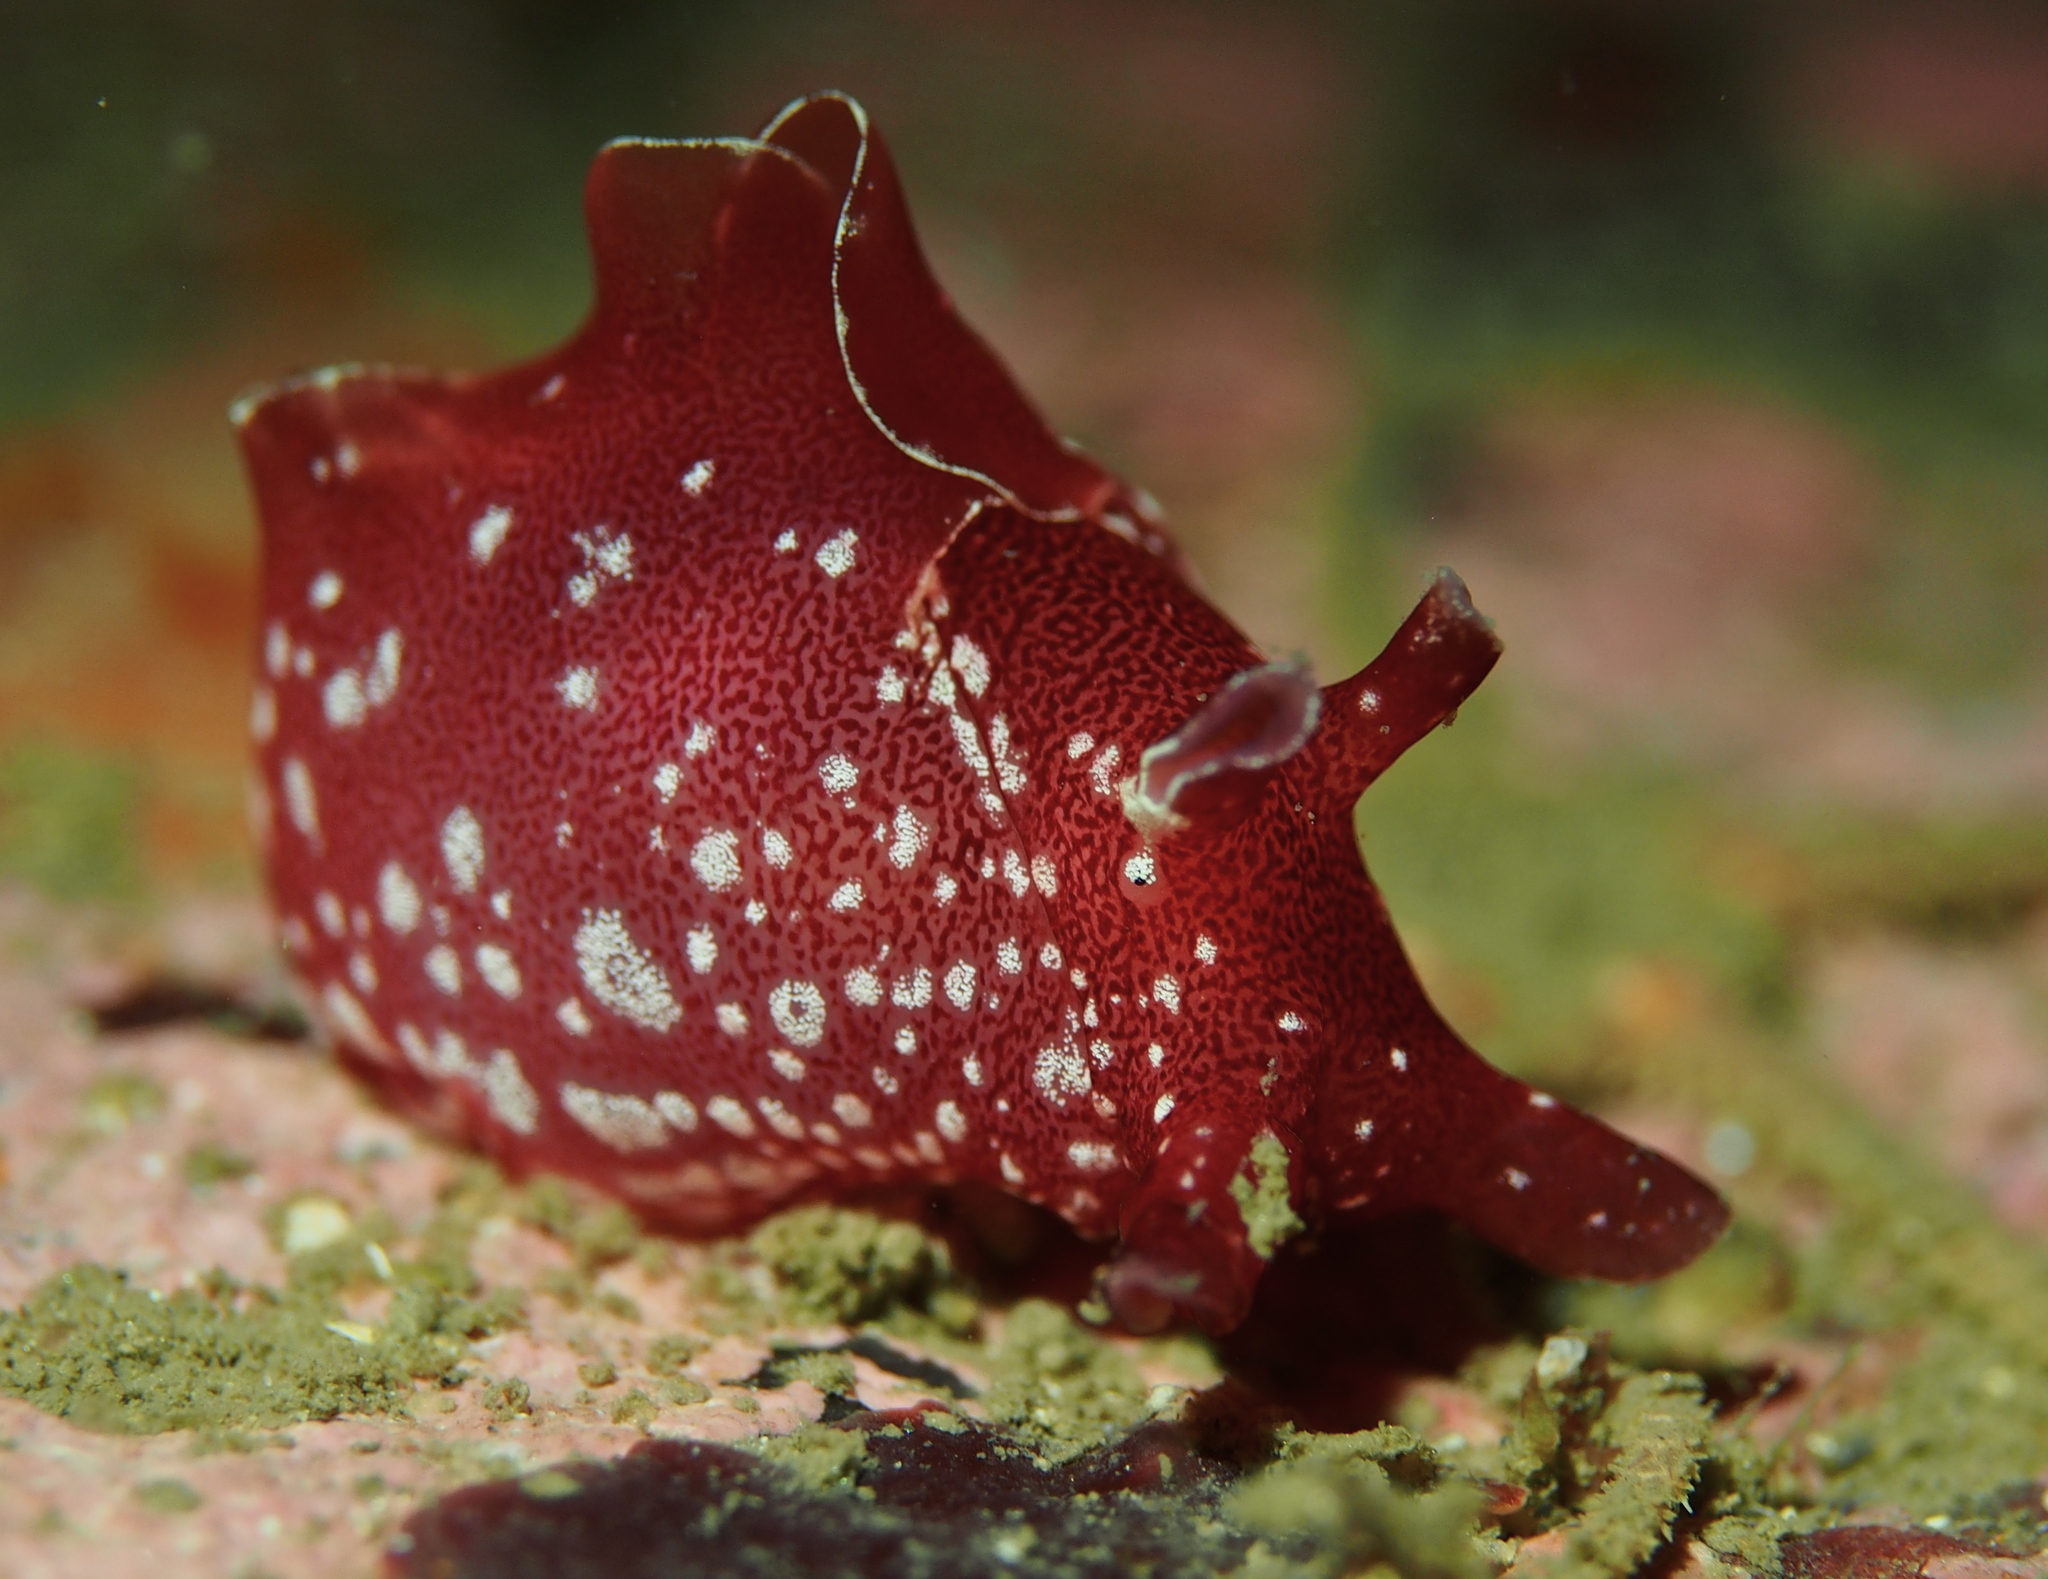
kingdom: Animalia
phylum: Mollusca
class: Gastropoda
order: Aplysiida
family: Aplysiidae
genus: Aplysia
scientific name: Aplysia punctata
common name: Common sea hare
